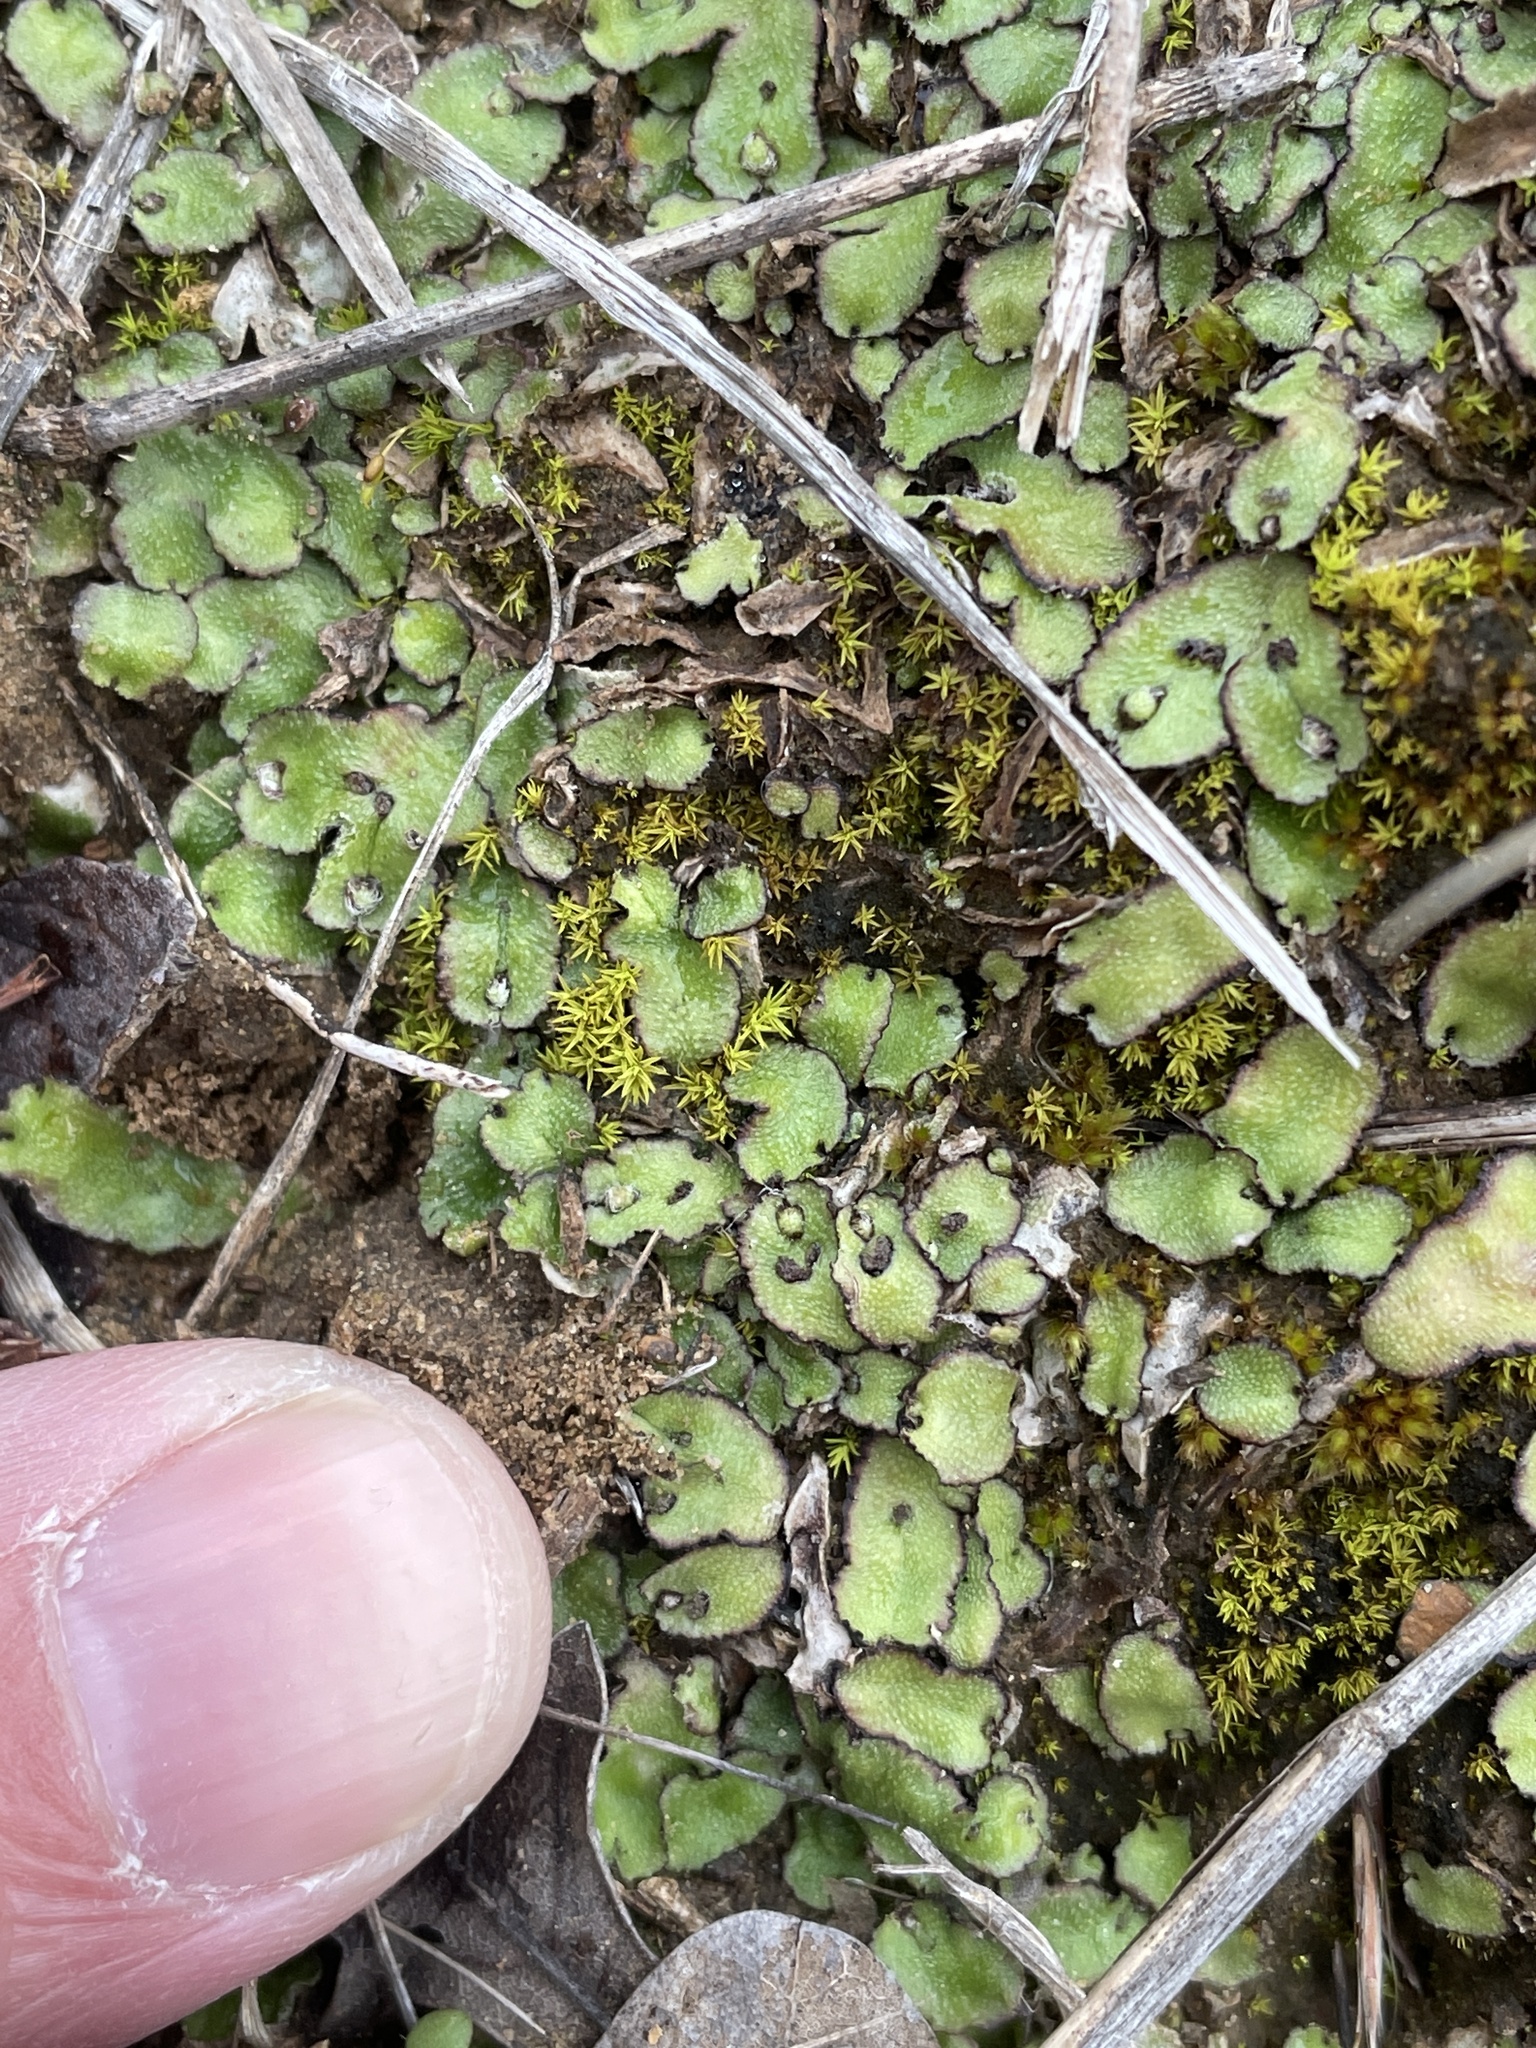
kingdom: Plantae
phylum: Marchantiophyta
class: Marchantiopsida
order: Marchantiales
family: Aytoniaceae
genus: Reboulia
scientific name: Reboulia hemisphaerica
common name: Purple-margined liverwort
